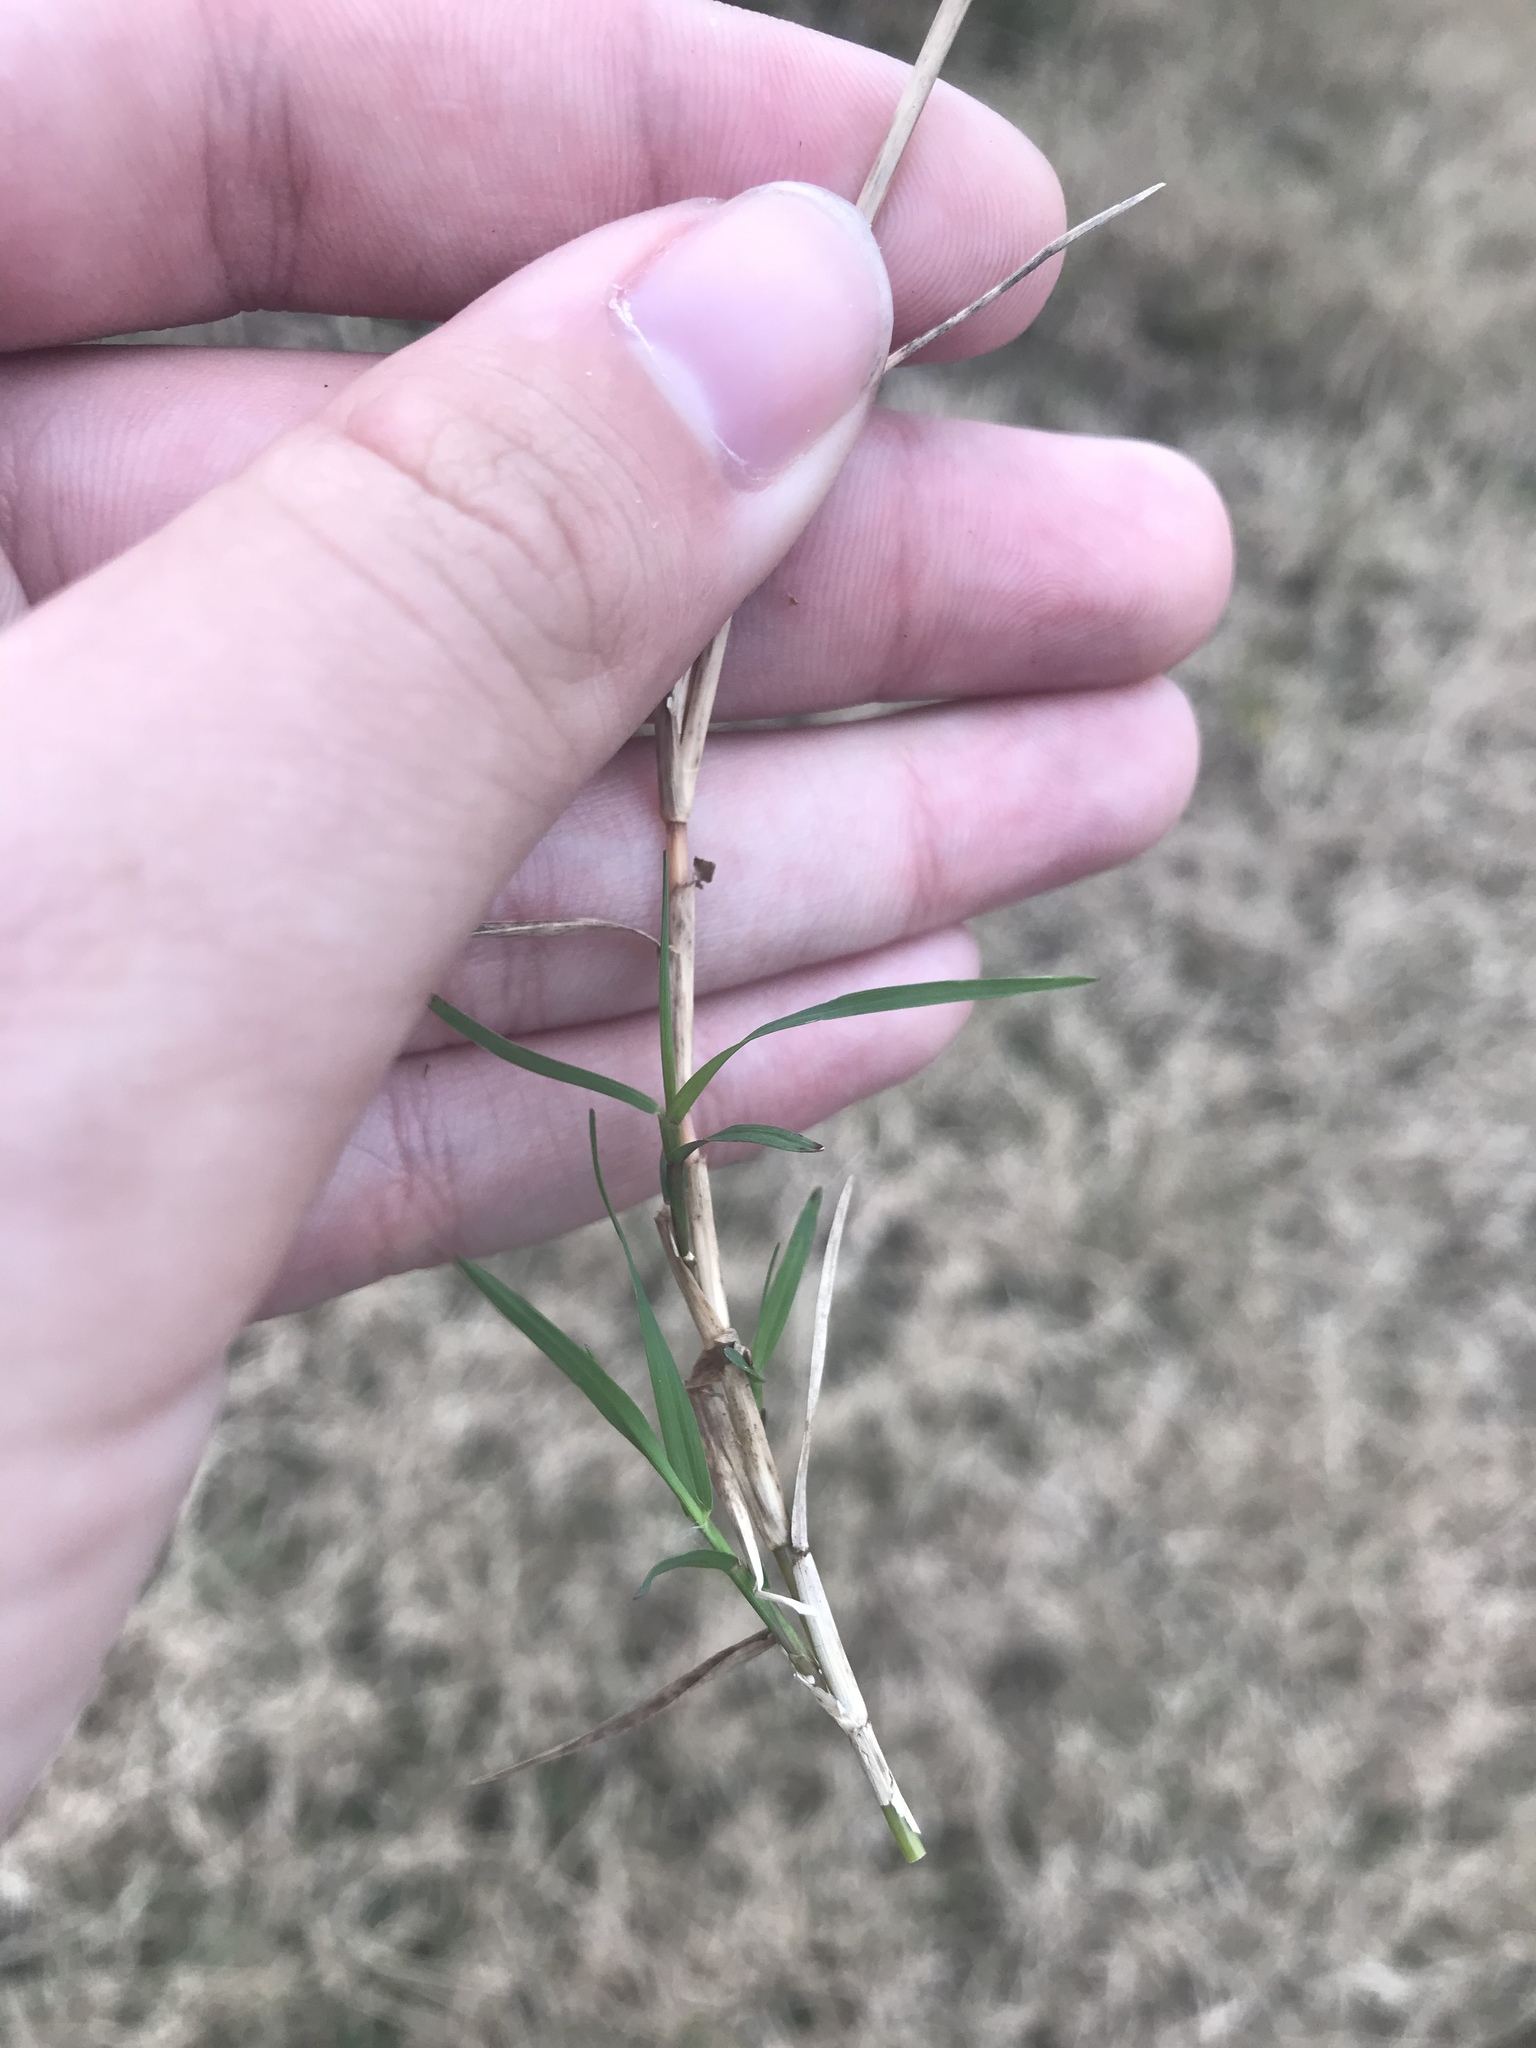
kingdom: Plantae
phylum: Tracheophyta
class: Liliopsida
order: Poales
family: Poaceae
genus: Cynodon
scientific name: Cynodon dactylon
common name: Bermuda grass
